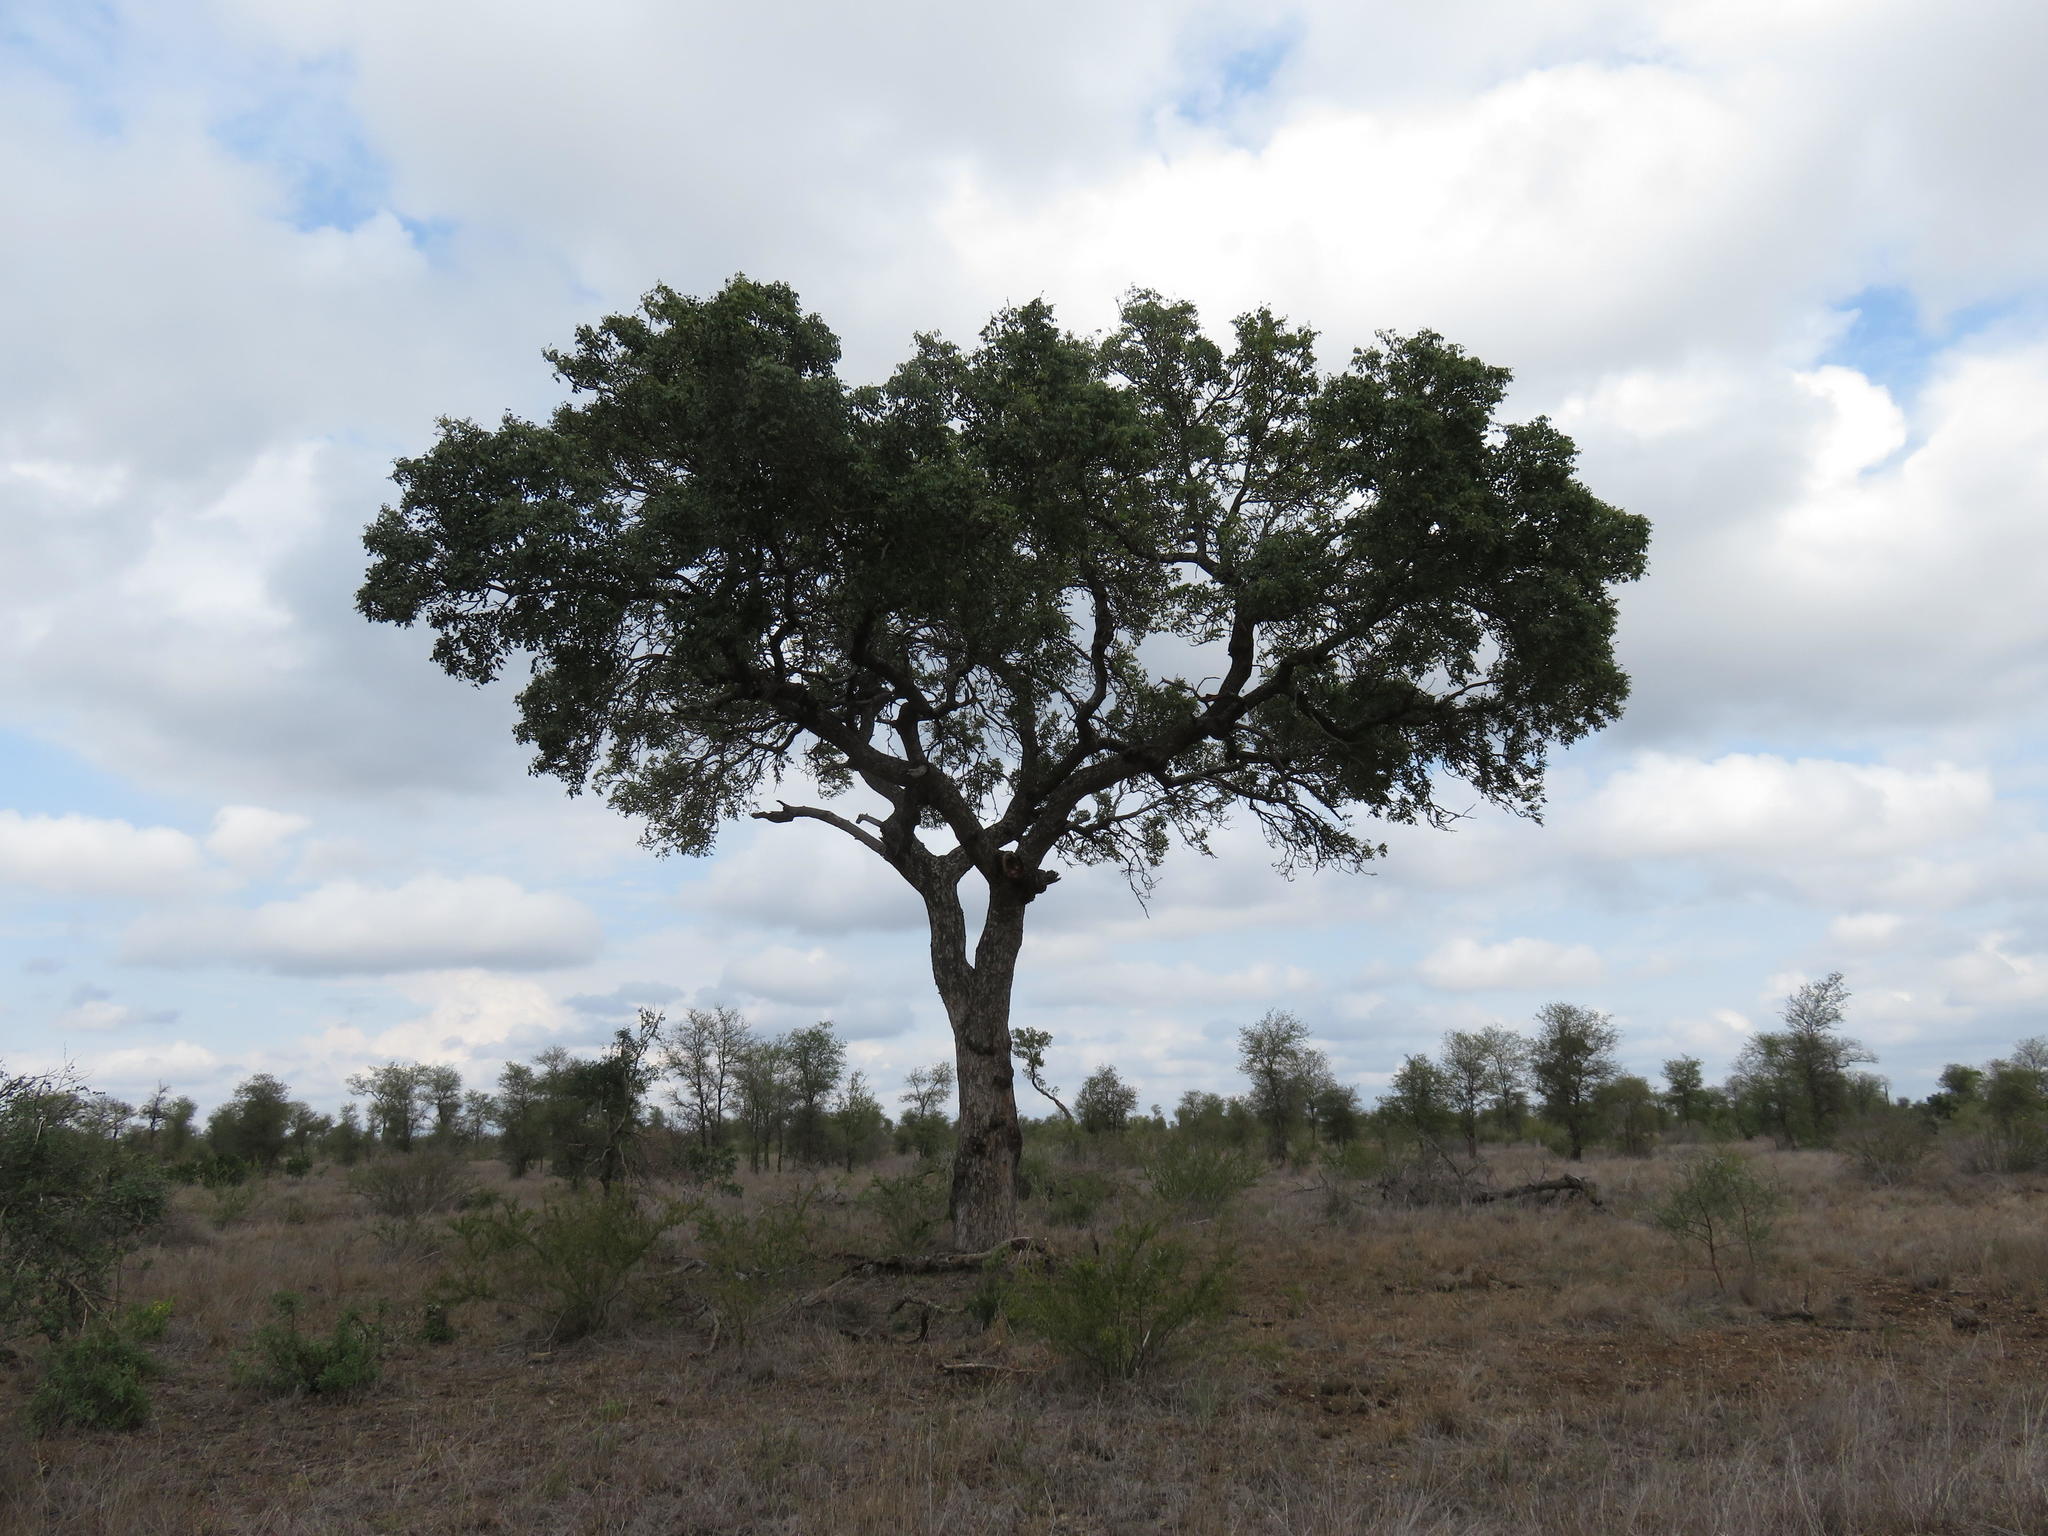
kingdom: Plantae
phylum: Tracheophyta
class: Magnoliopsida
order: Sapindales
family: Anacardiaceae
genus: Sclerocarya
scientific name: Sclerocarya birrea
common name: Marula
